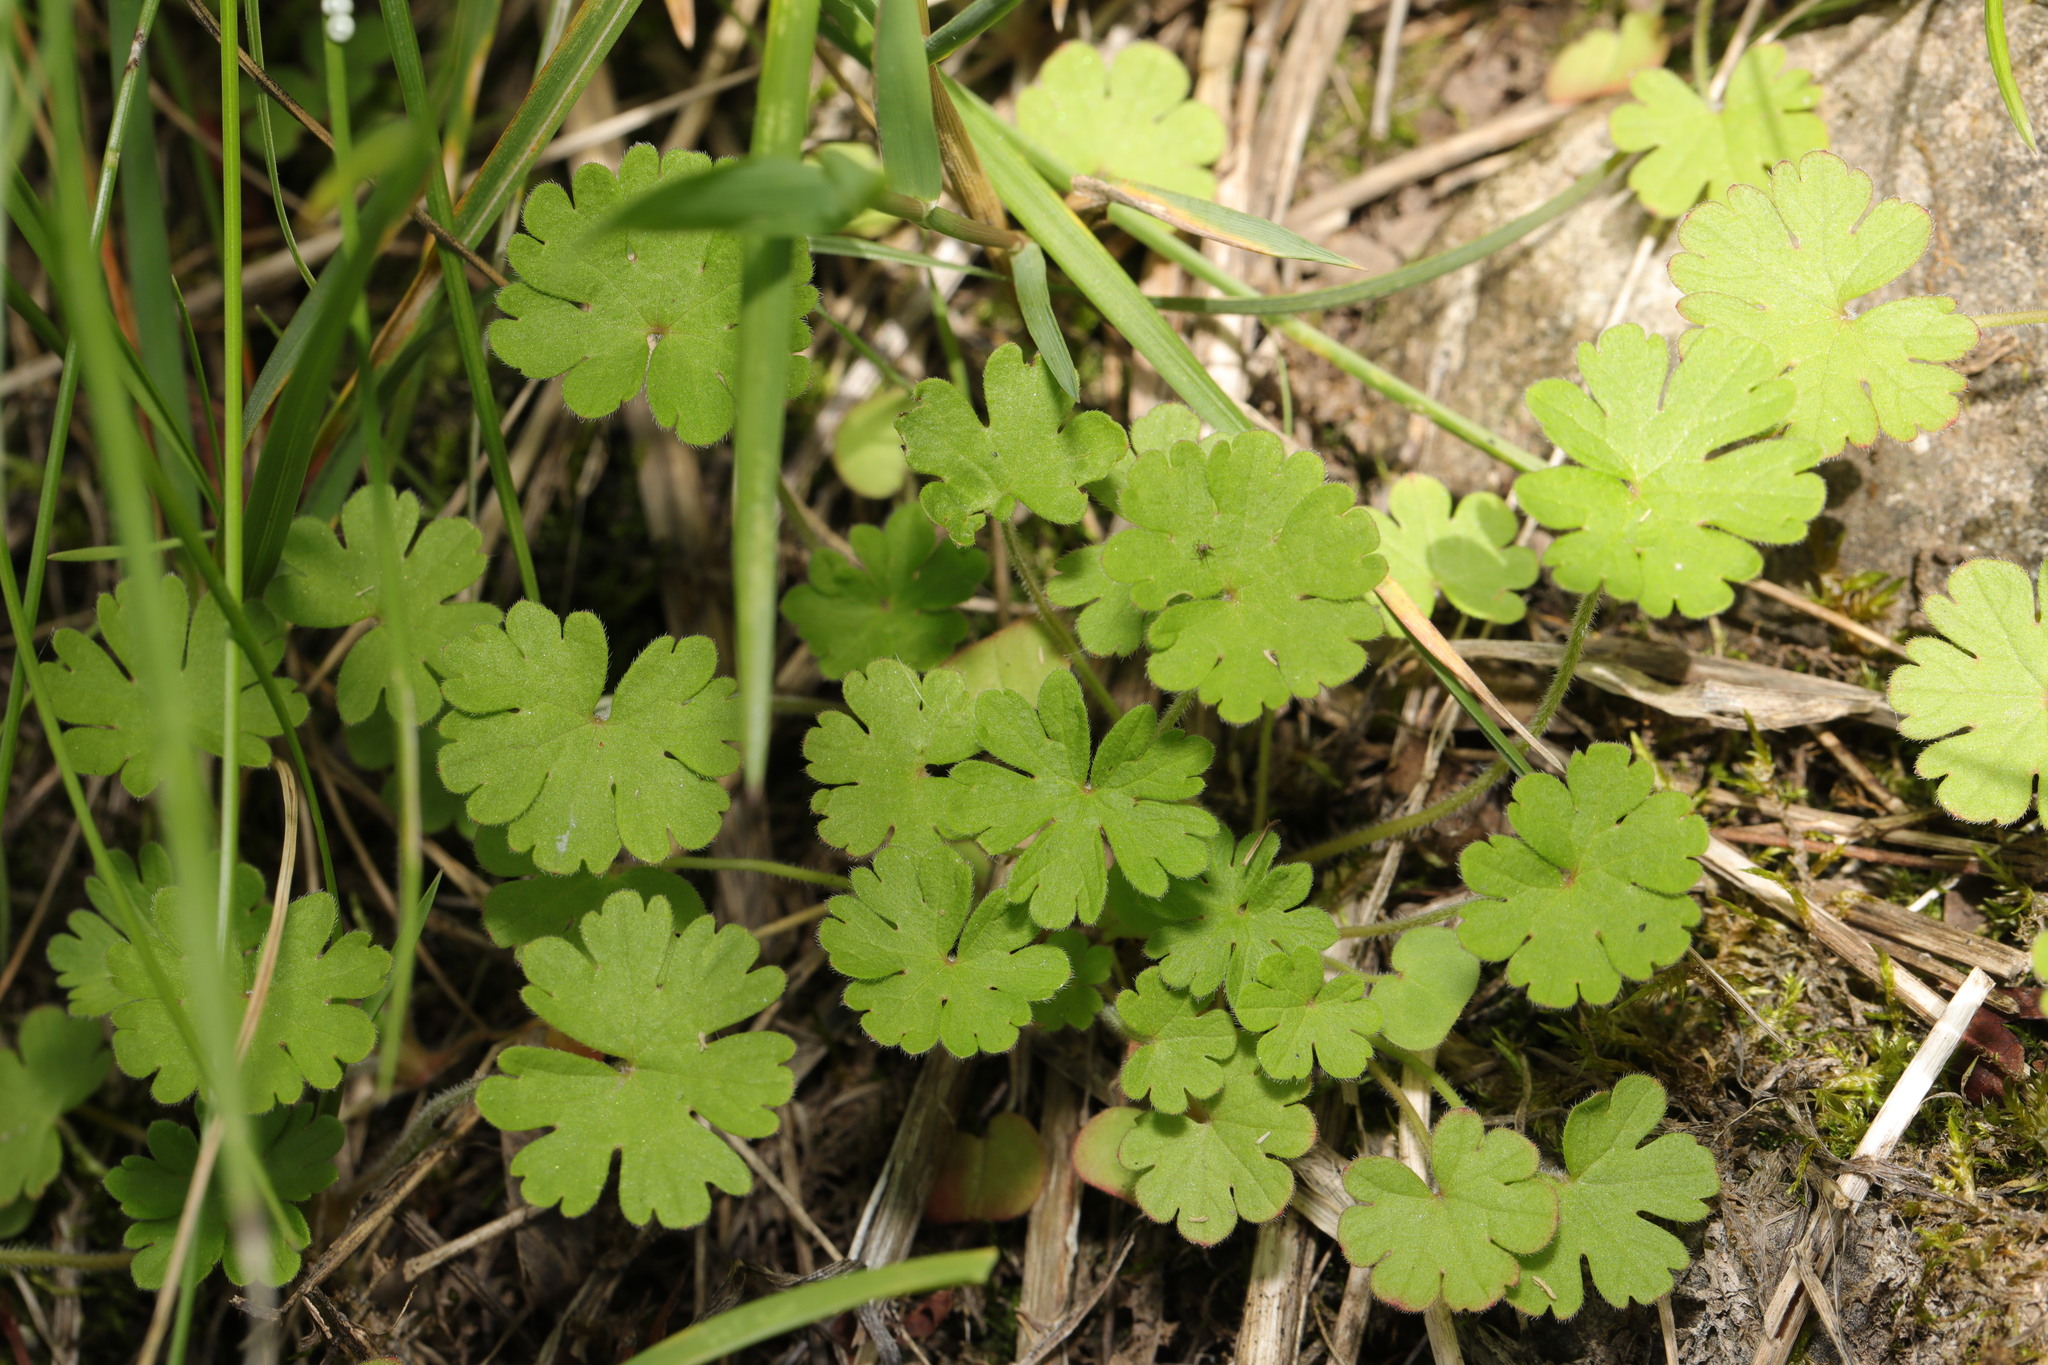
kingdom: Plantae
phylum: Tracheophyta
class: Magnoliopsida
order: Geraniales
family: Geraniaceae
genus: Geranium
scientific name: Geranium molle
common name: Dove's-foot crane's-bill
